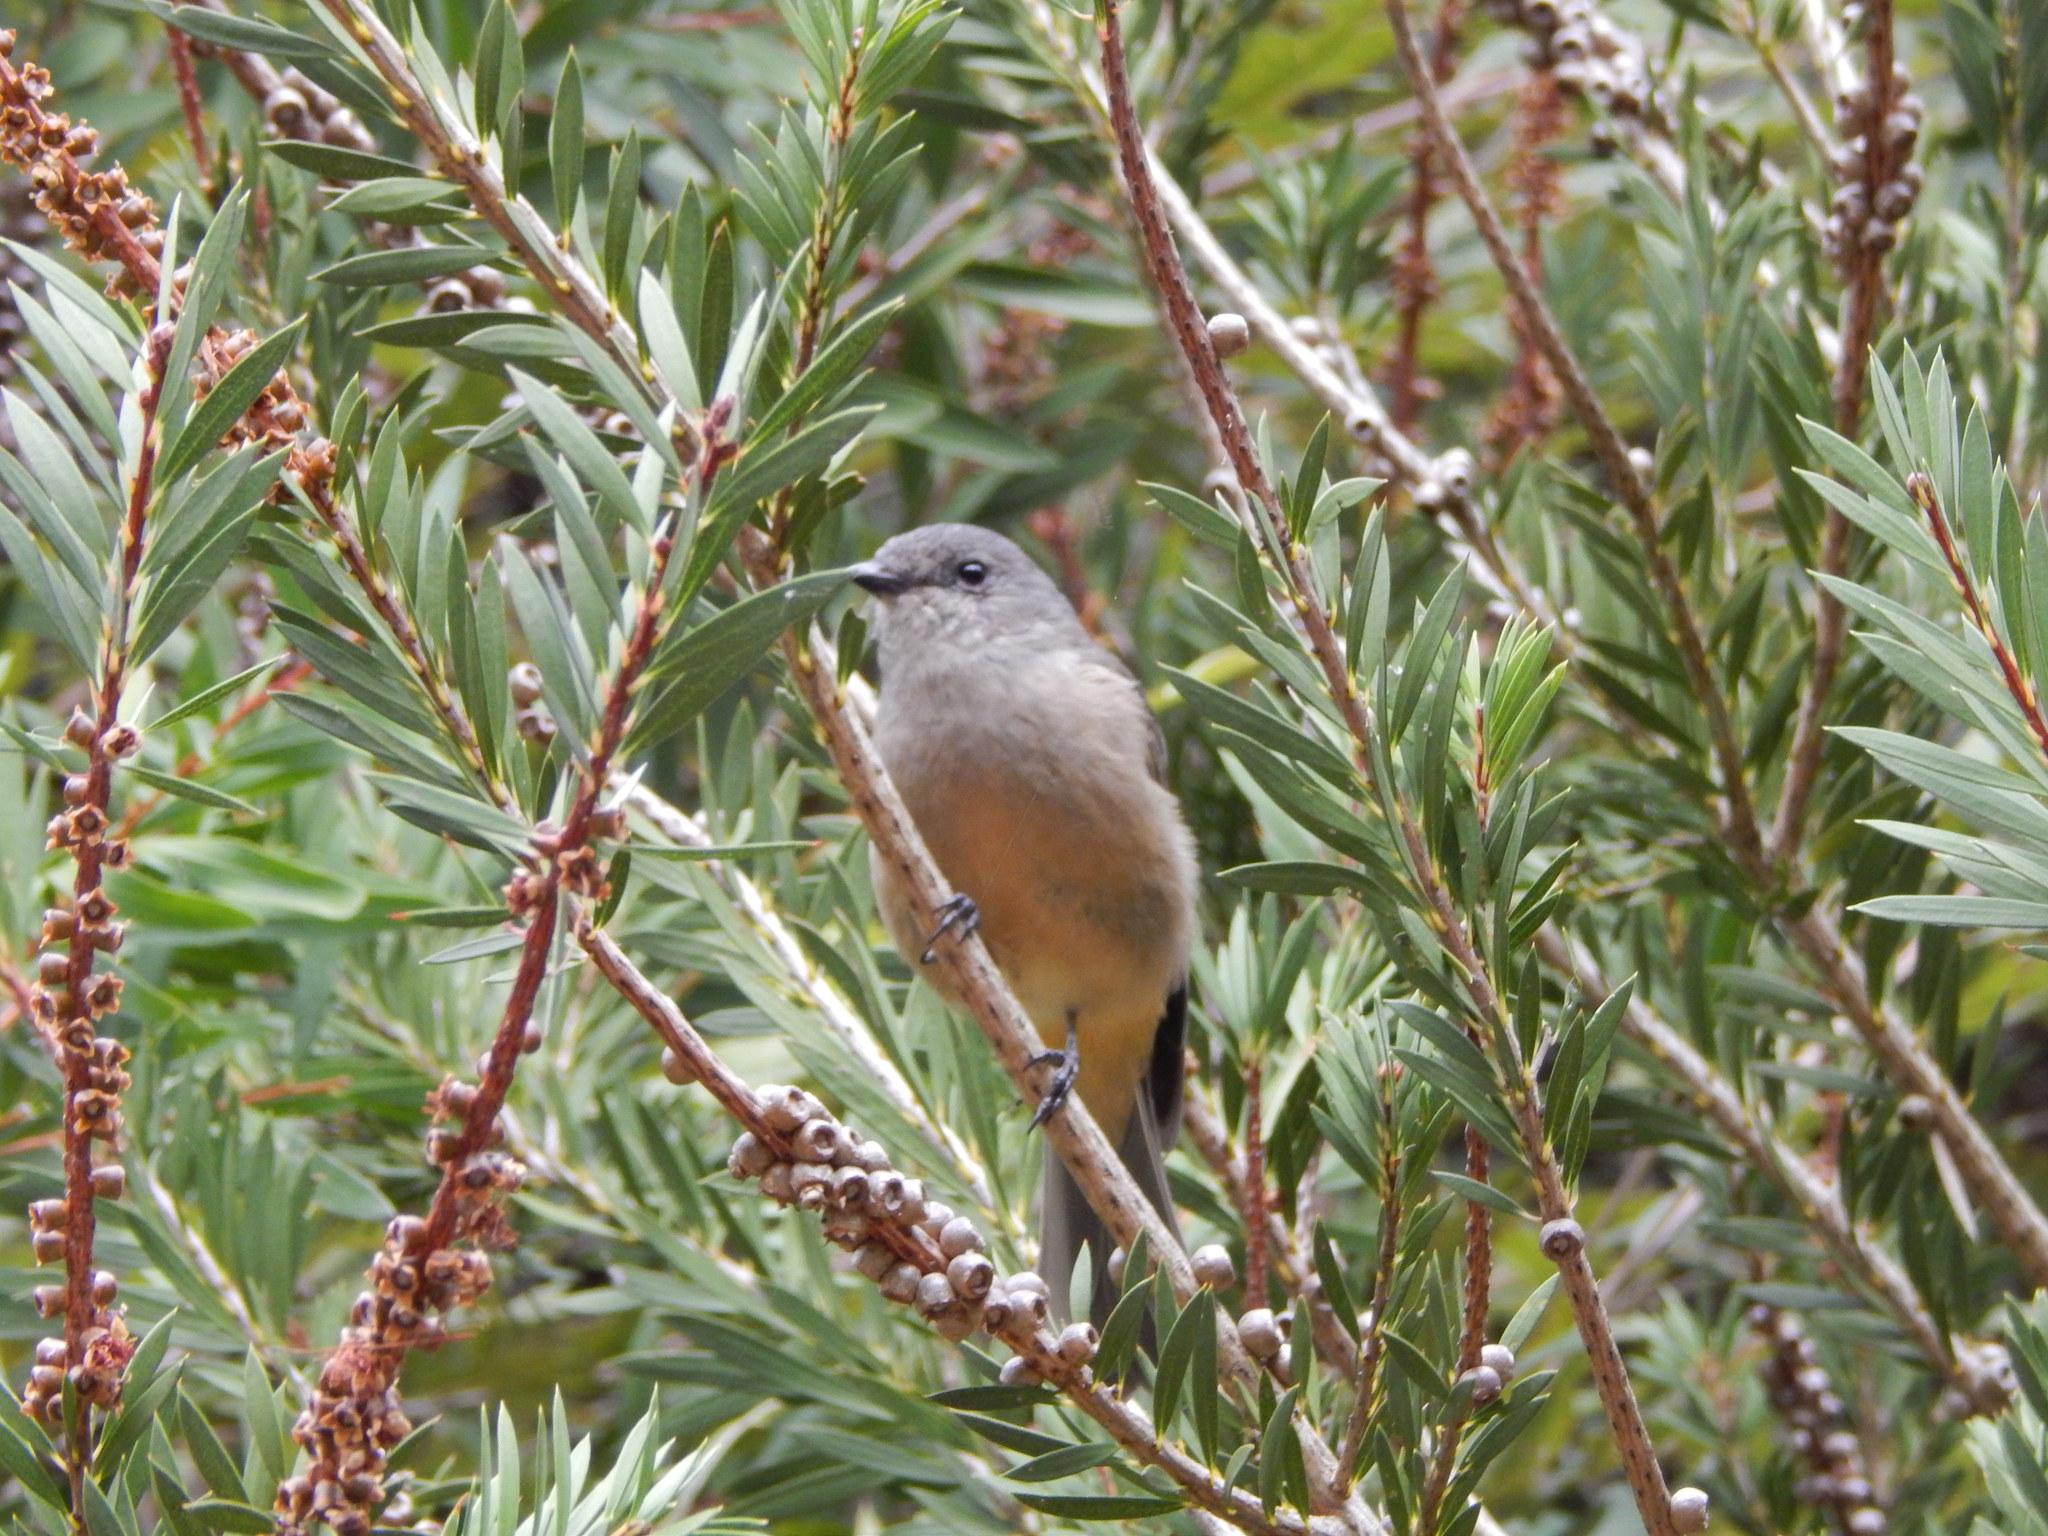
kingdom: Animalia
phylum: Chordata
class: Aves
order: Passeriformes
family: Pachycephalidae
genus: Pachycephala
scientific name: Pachycephala fuliginosa
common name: Western whistler
